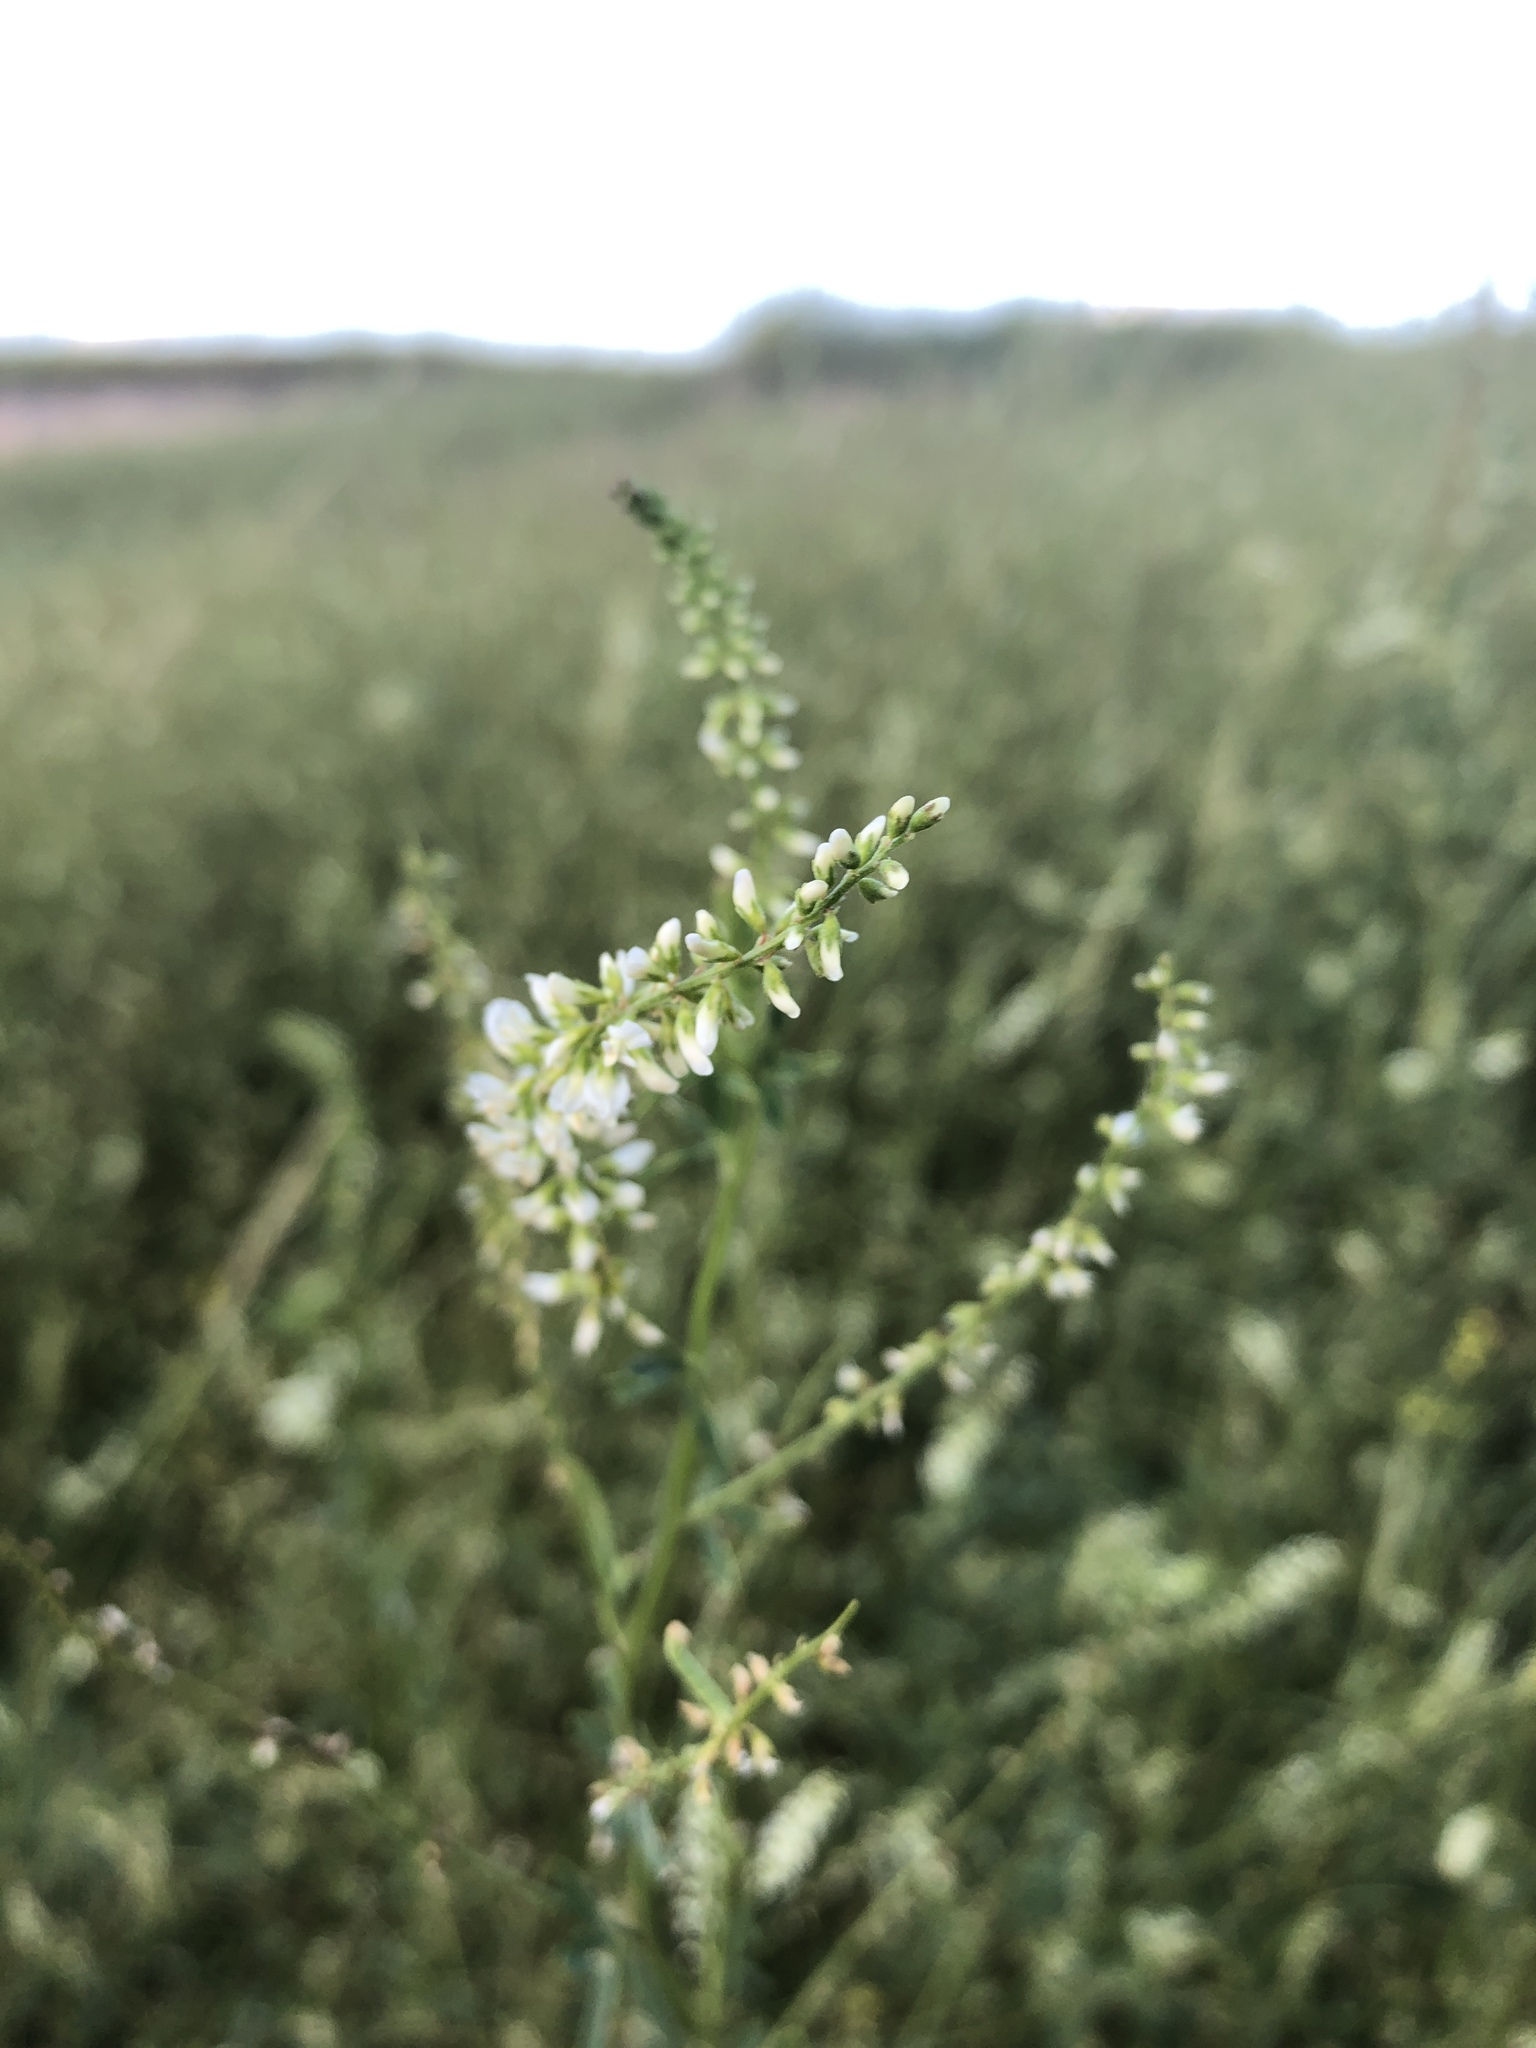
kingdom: Plantae
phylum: Tracheophyta
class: Magnoliopsida
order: Fabales
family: Fabaceae
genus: Melilotus
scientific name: Melilotus albus
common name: White melilot
